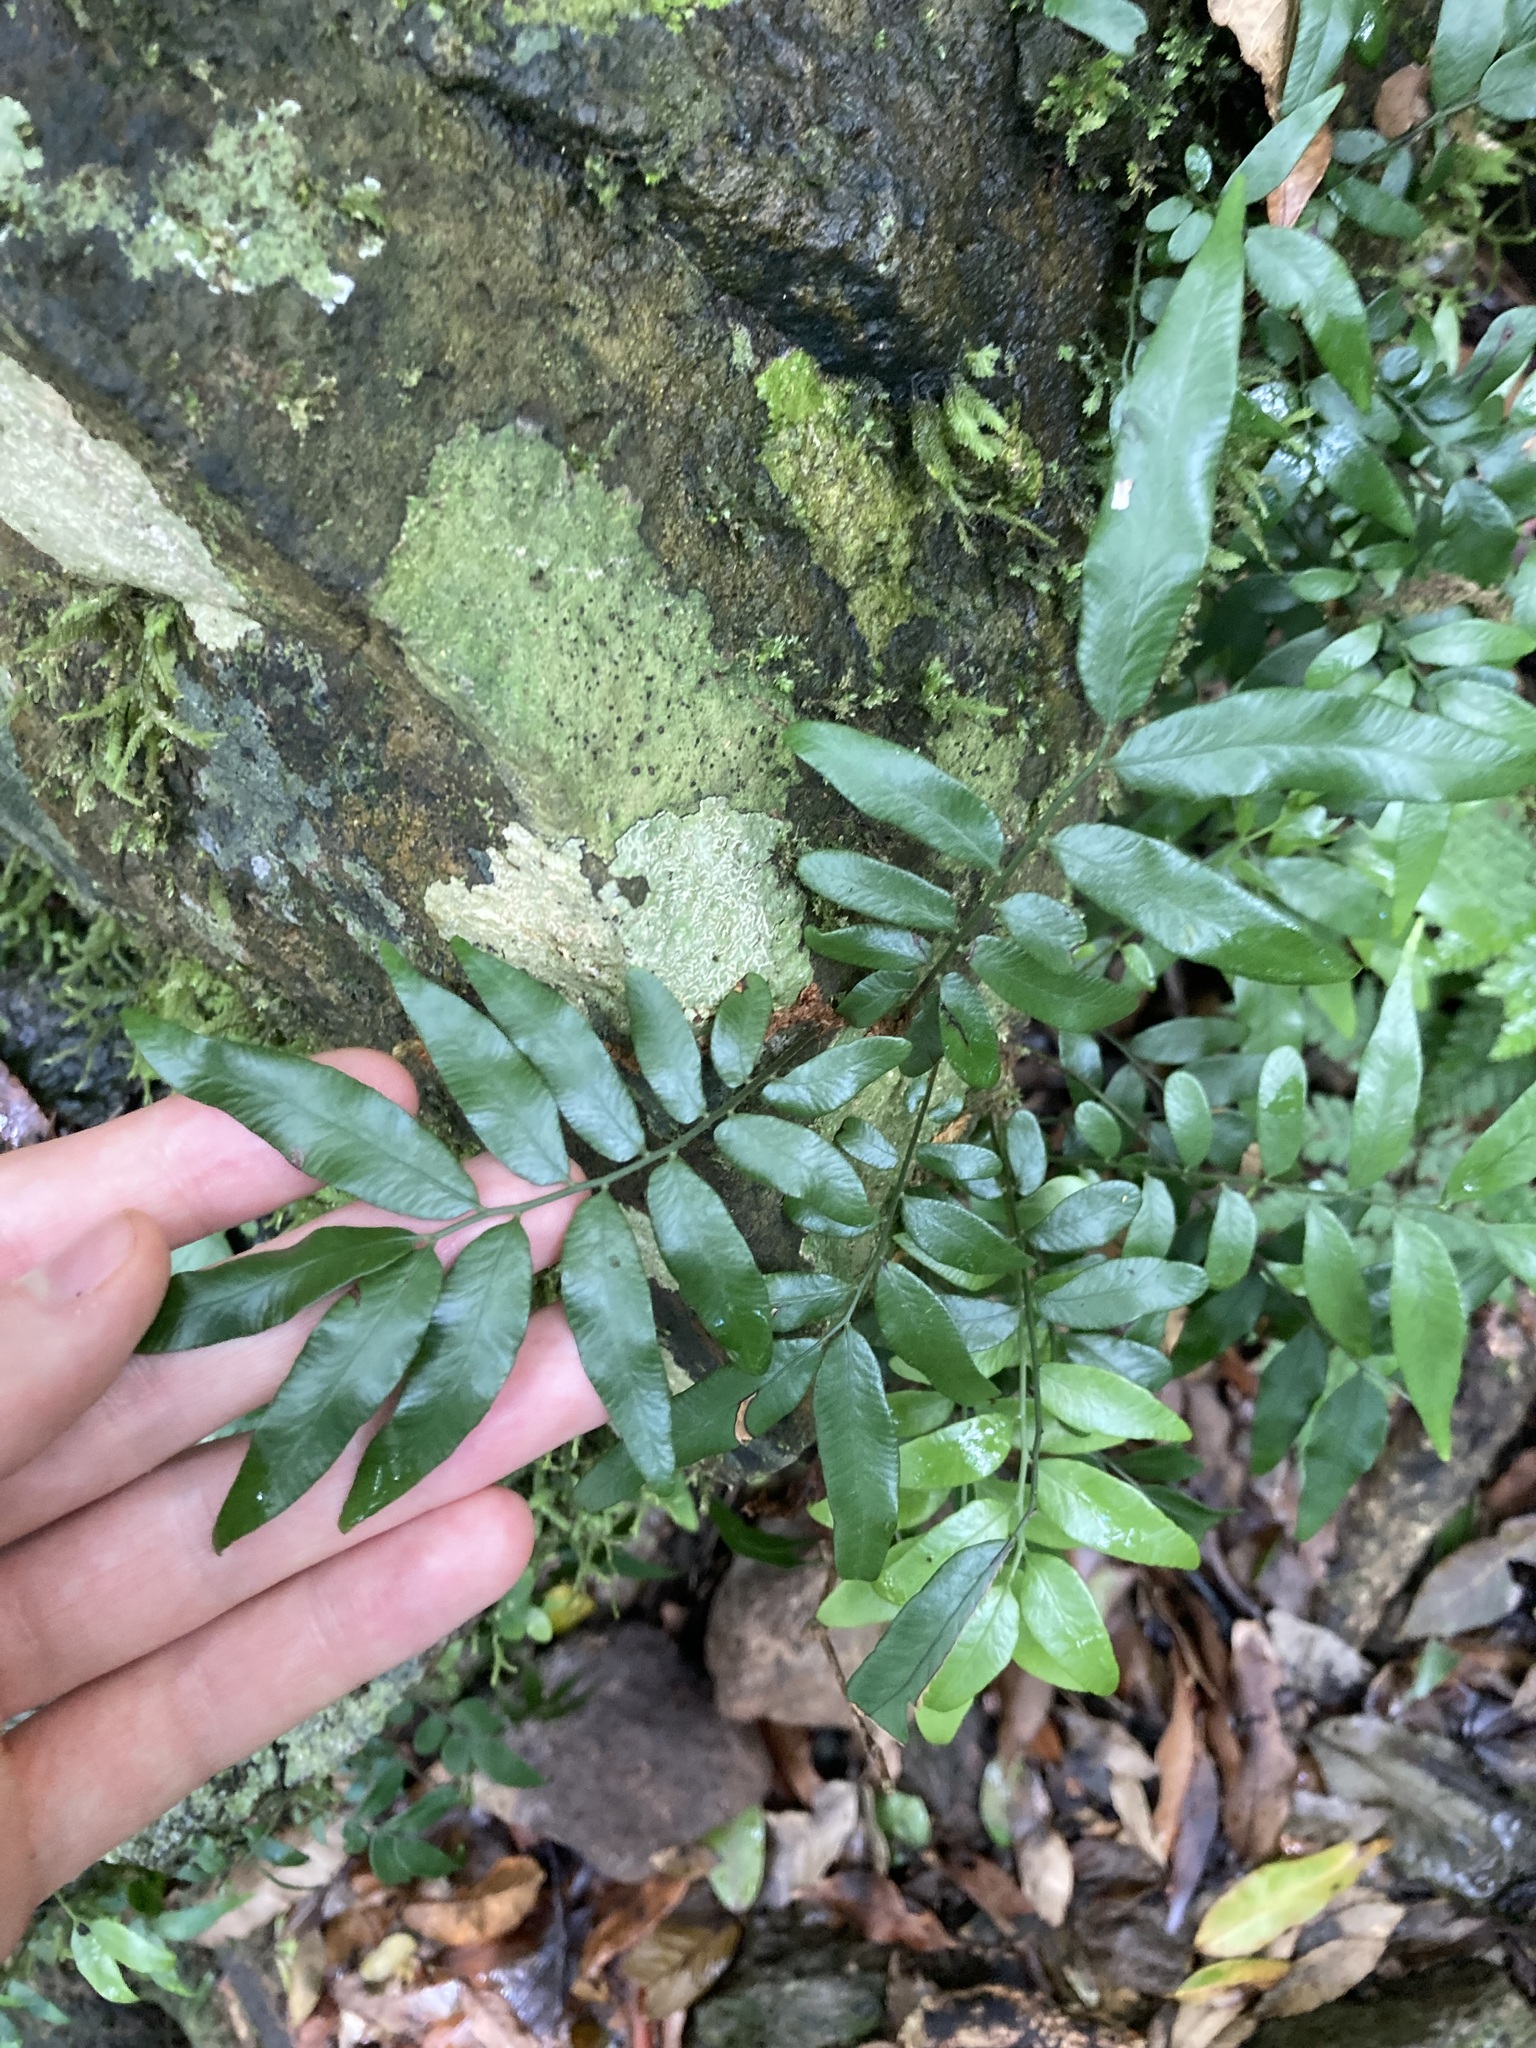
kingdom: Plantae
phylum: Tracheophyta
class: Polypodiopsida
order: Polypodiales
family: Tectariaceae
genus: Arthropteris
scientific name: Arthropteris tenella
